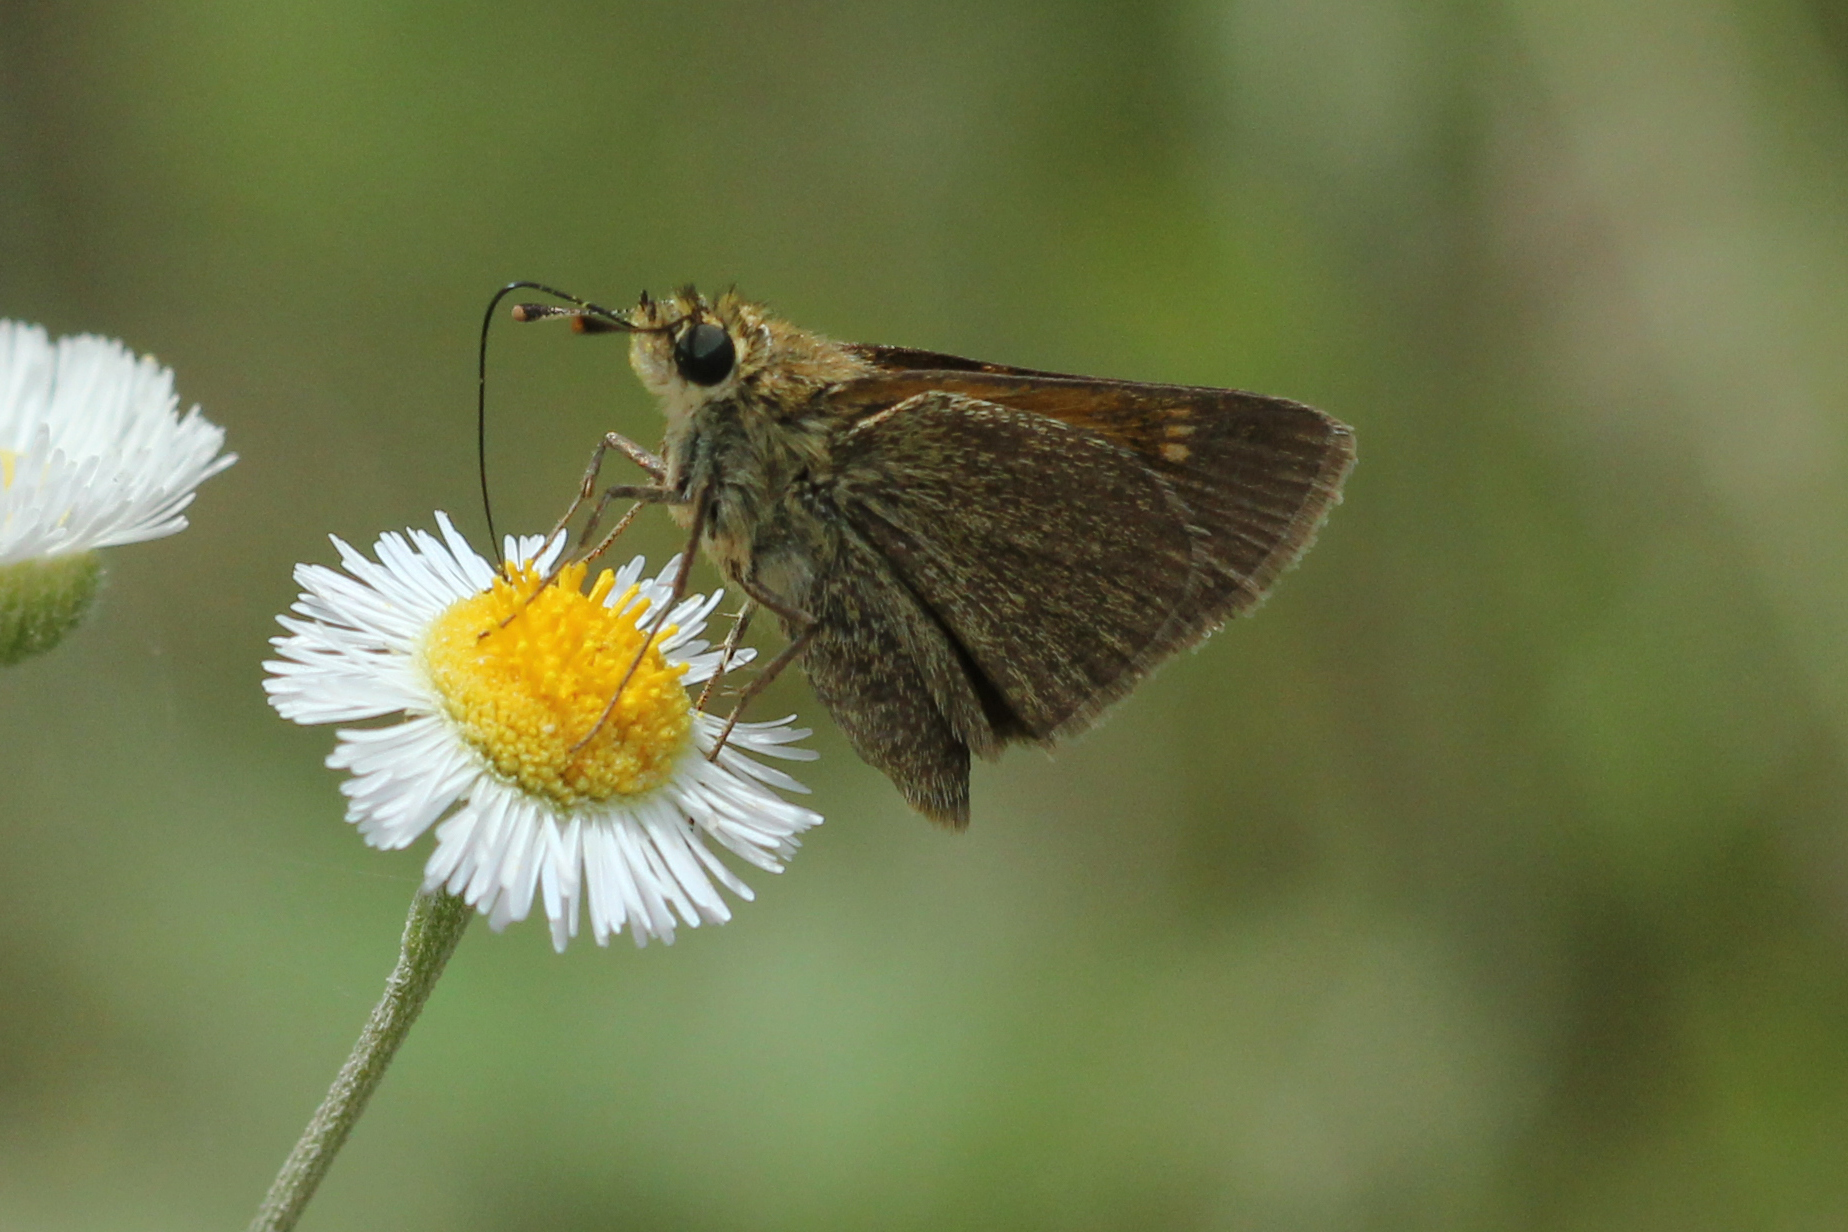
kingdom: Animalia
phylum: Arthropoda
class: Insecta
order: Lepidoptera
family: Hesperiidae
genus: Polites
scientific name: Polites themistocles
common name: Tawny-edged skipper
